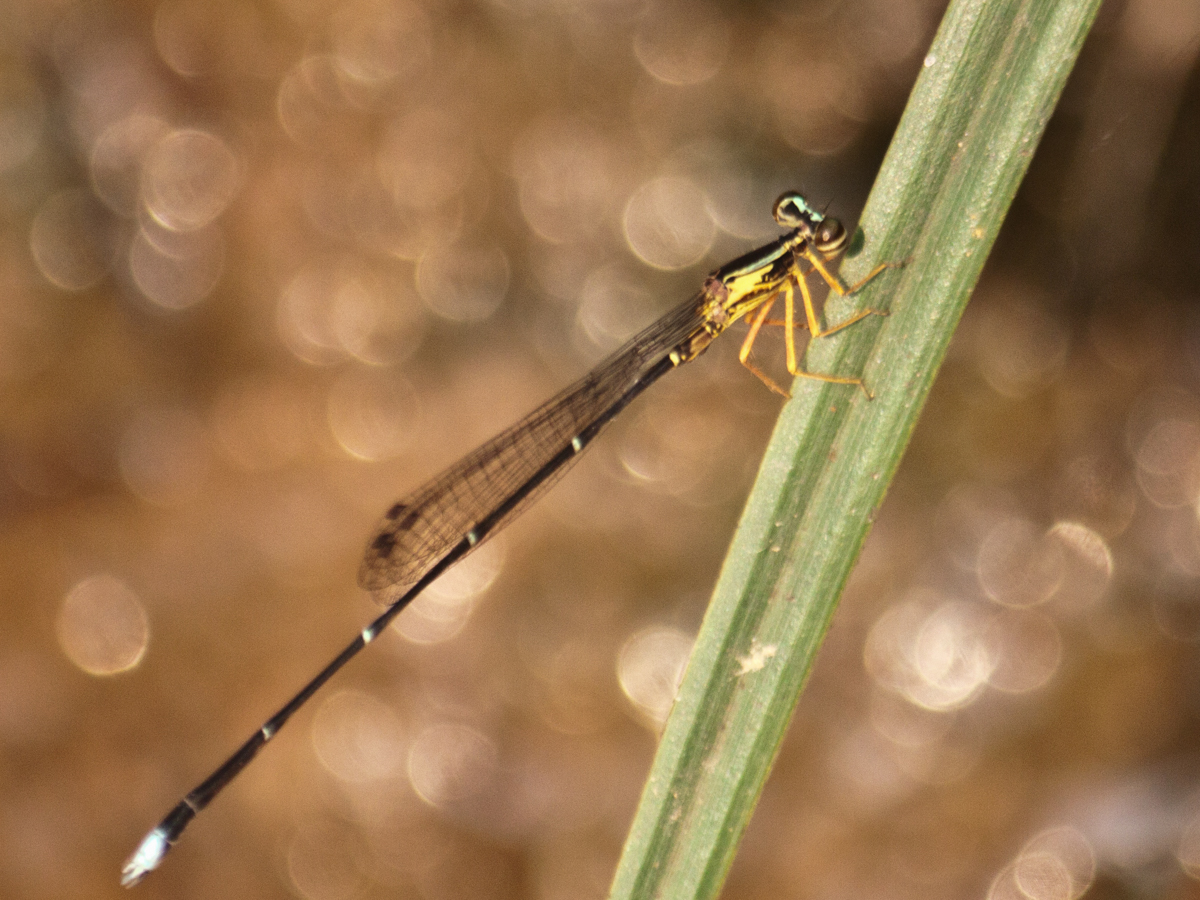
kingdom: Animalia
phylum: Arthropoda
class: Insecta
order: Odonata
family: Platycnemididae
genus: Copera
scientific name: Copera vittata
